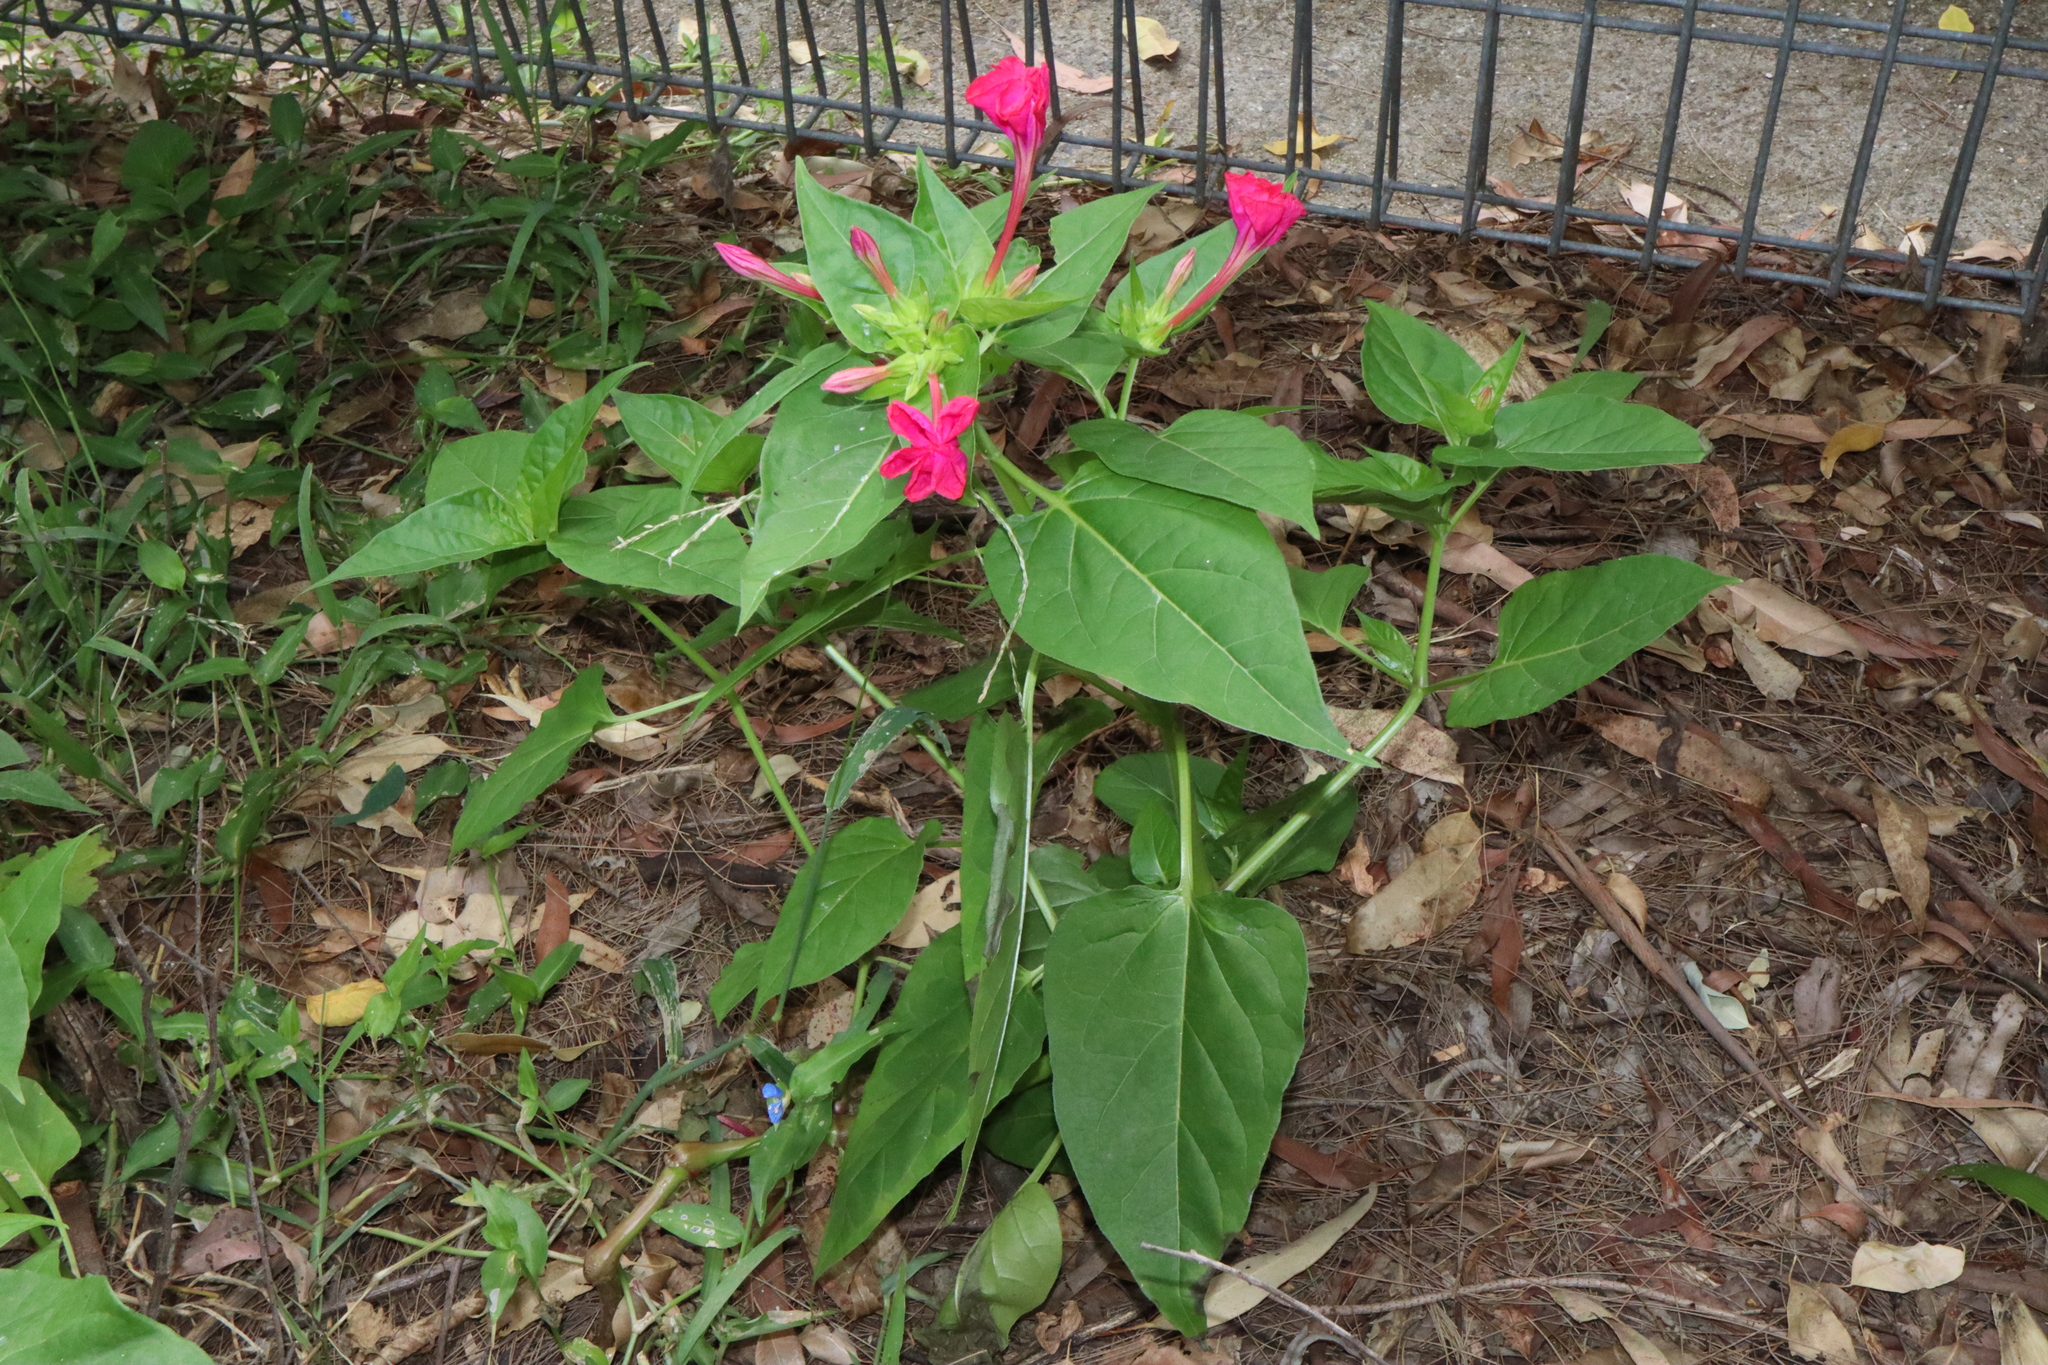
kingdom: Plantae
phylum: Tracheophyta
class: Magnoliopsida
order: Caryophyllales
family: Nyctaginaceae
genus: Mirabilis
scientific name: Mirabilis jalapa
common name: Marvel-of-peru
